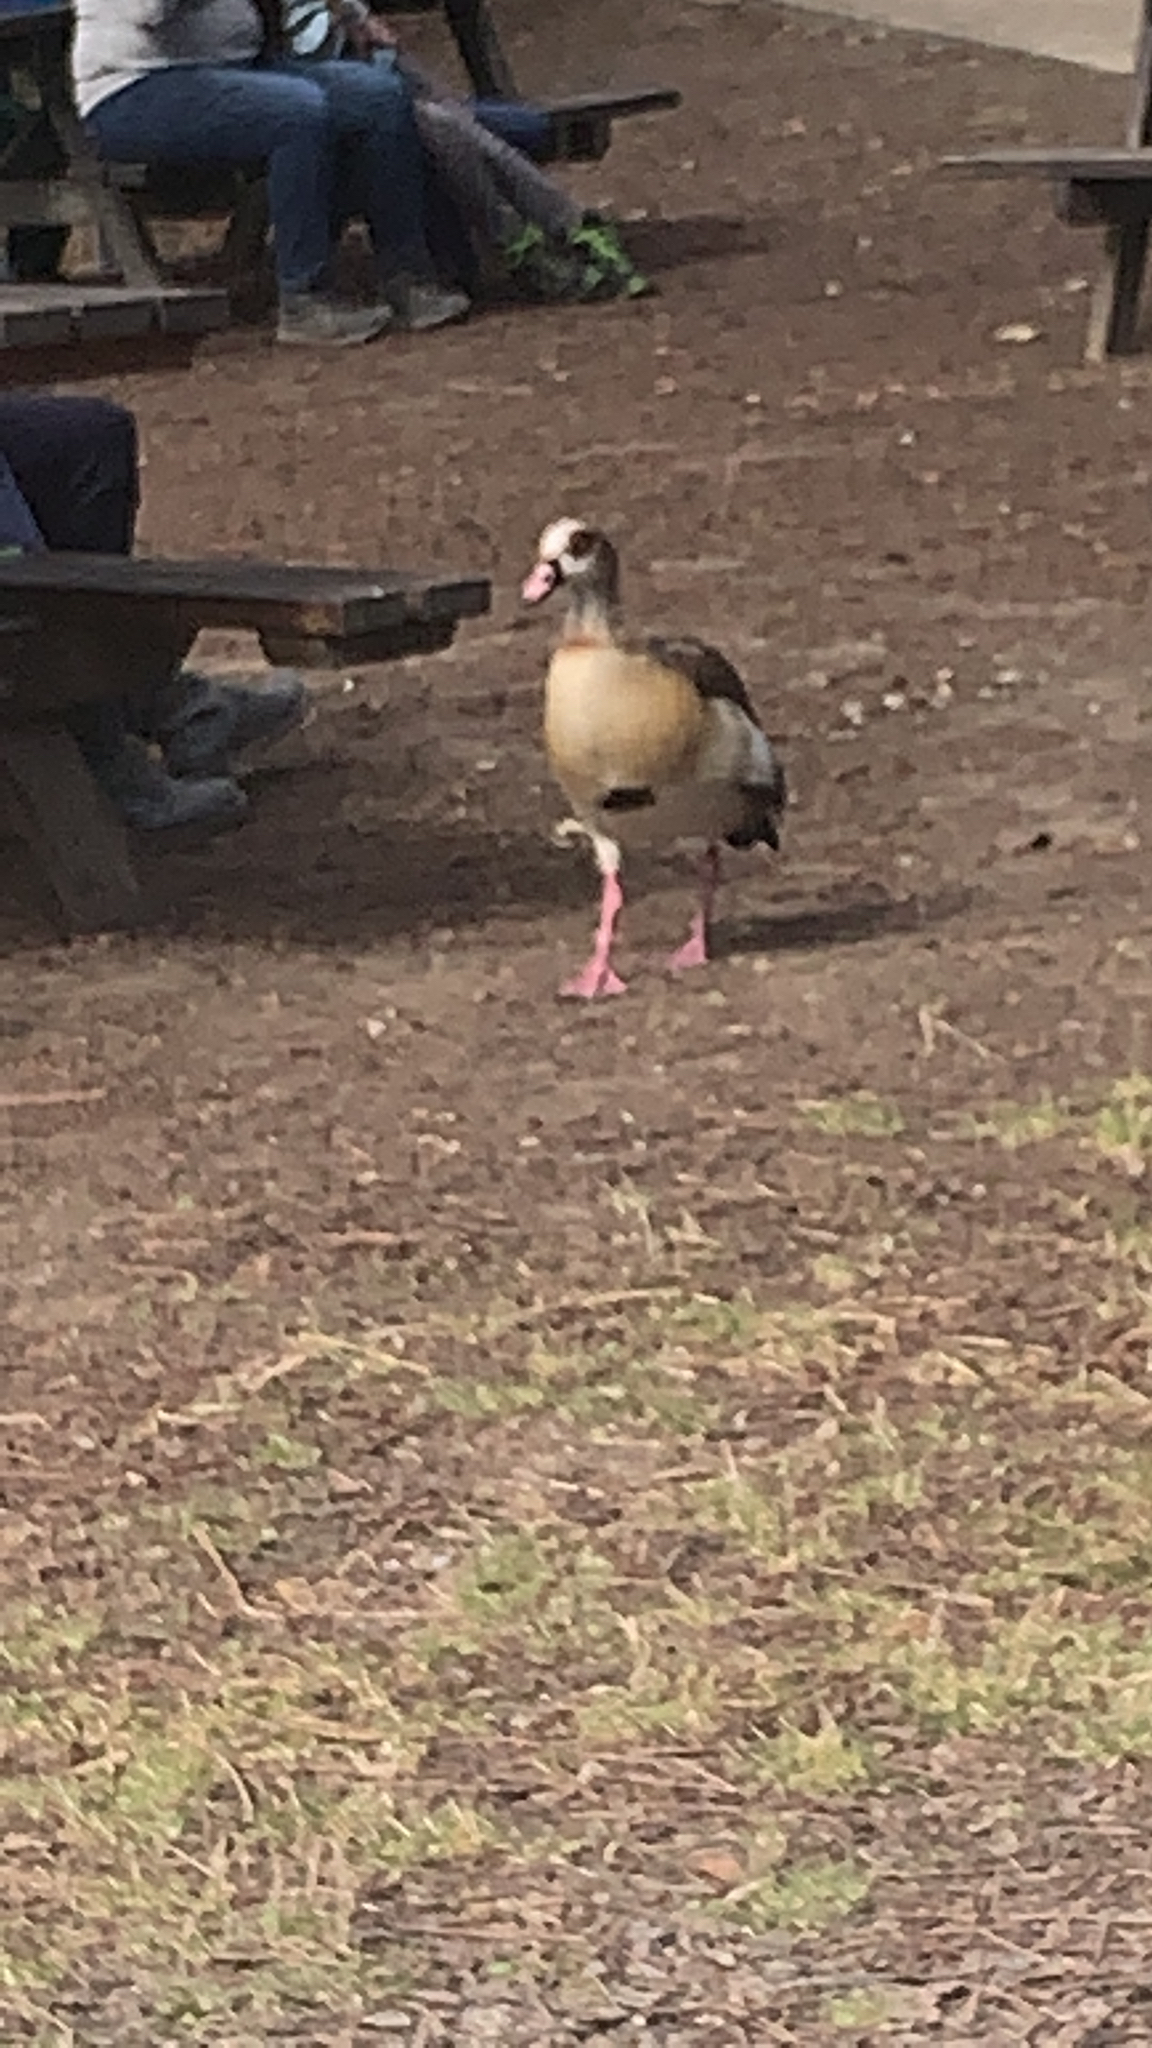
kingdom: Animalia
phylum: Chordata
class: Aves
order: Anseriformes
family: Anatidae
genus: Alopochen
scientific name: Alopochen aegyptiaca
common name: Egyptian goose
